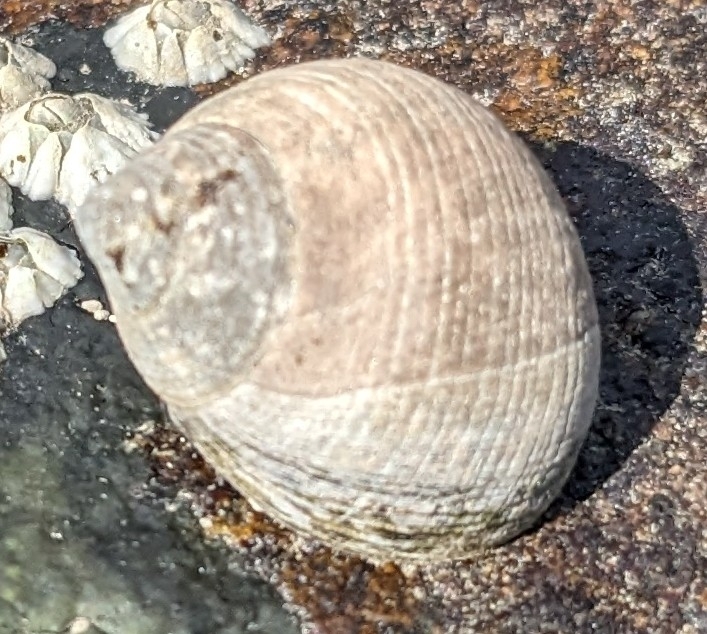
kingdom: Animalia
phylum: Mollusca
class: Gastropoda
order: Littorinimorpha
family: Littorinidae
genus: Littorina
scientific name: Littorina littorea
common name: Common periwinkle
